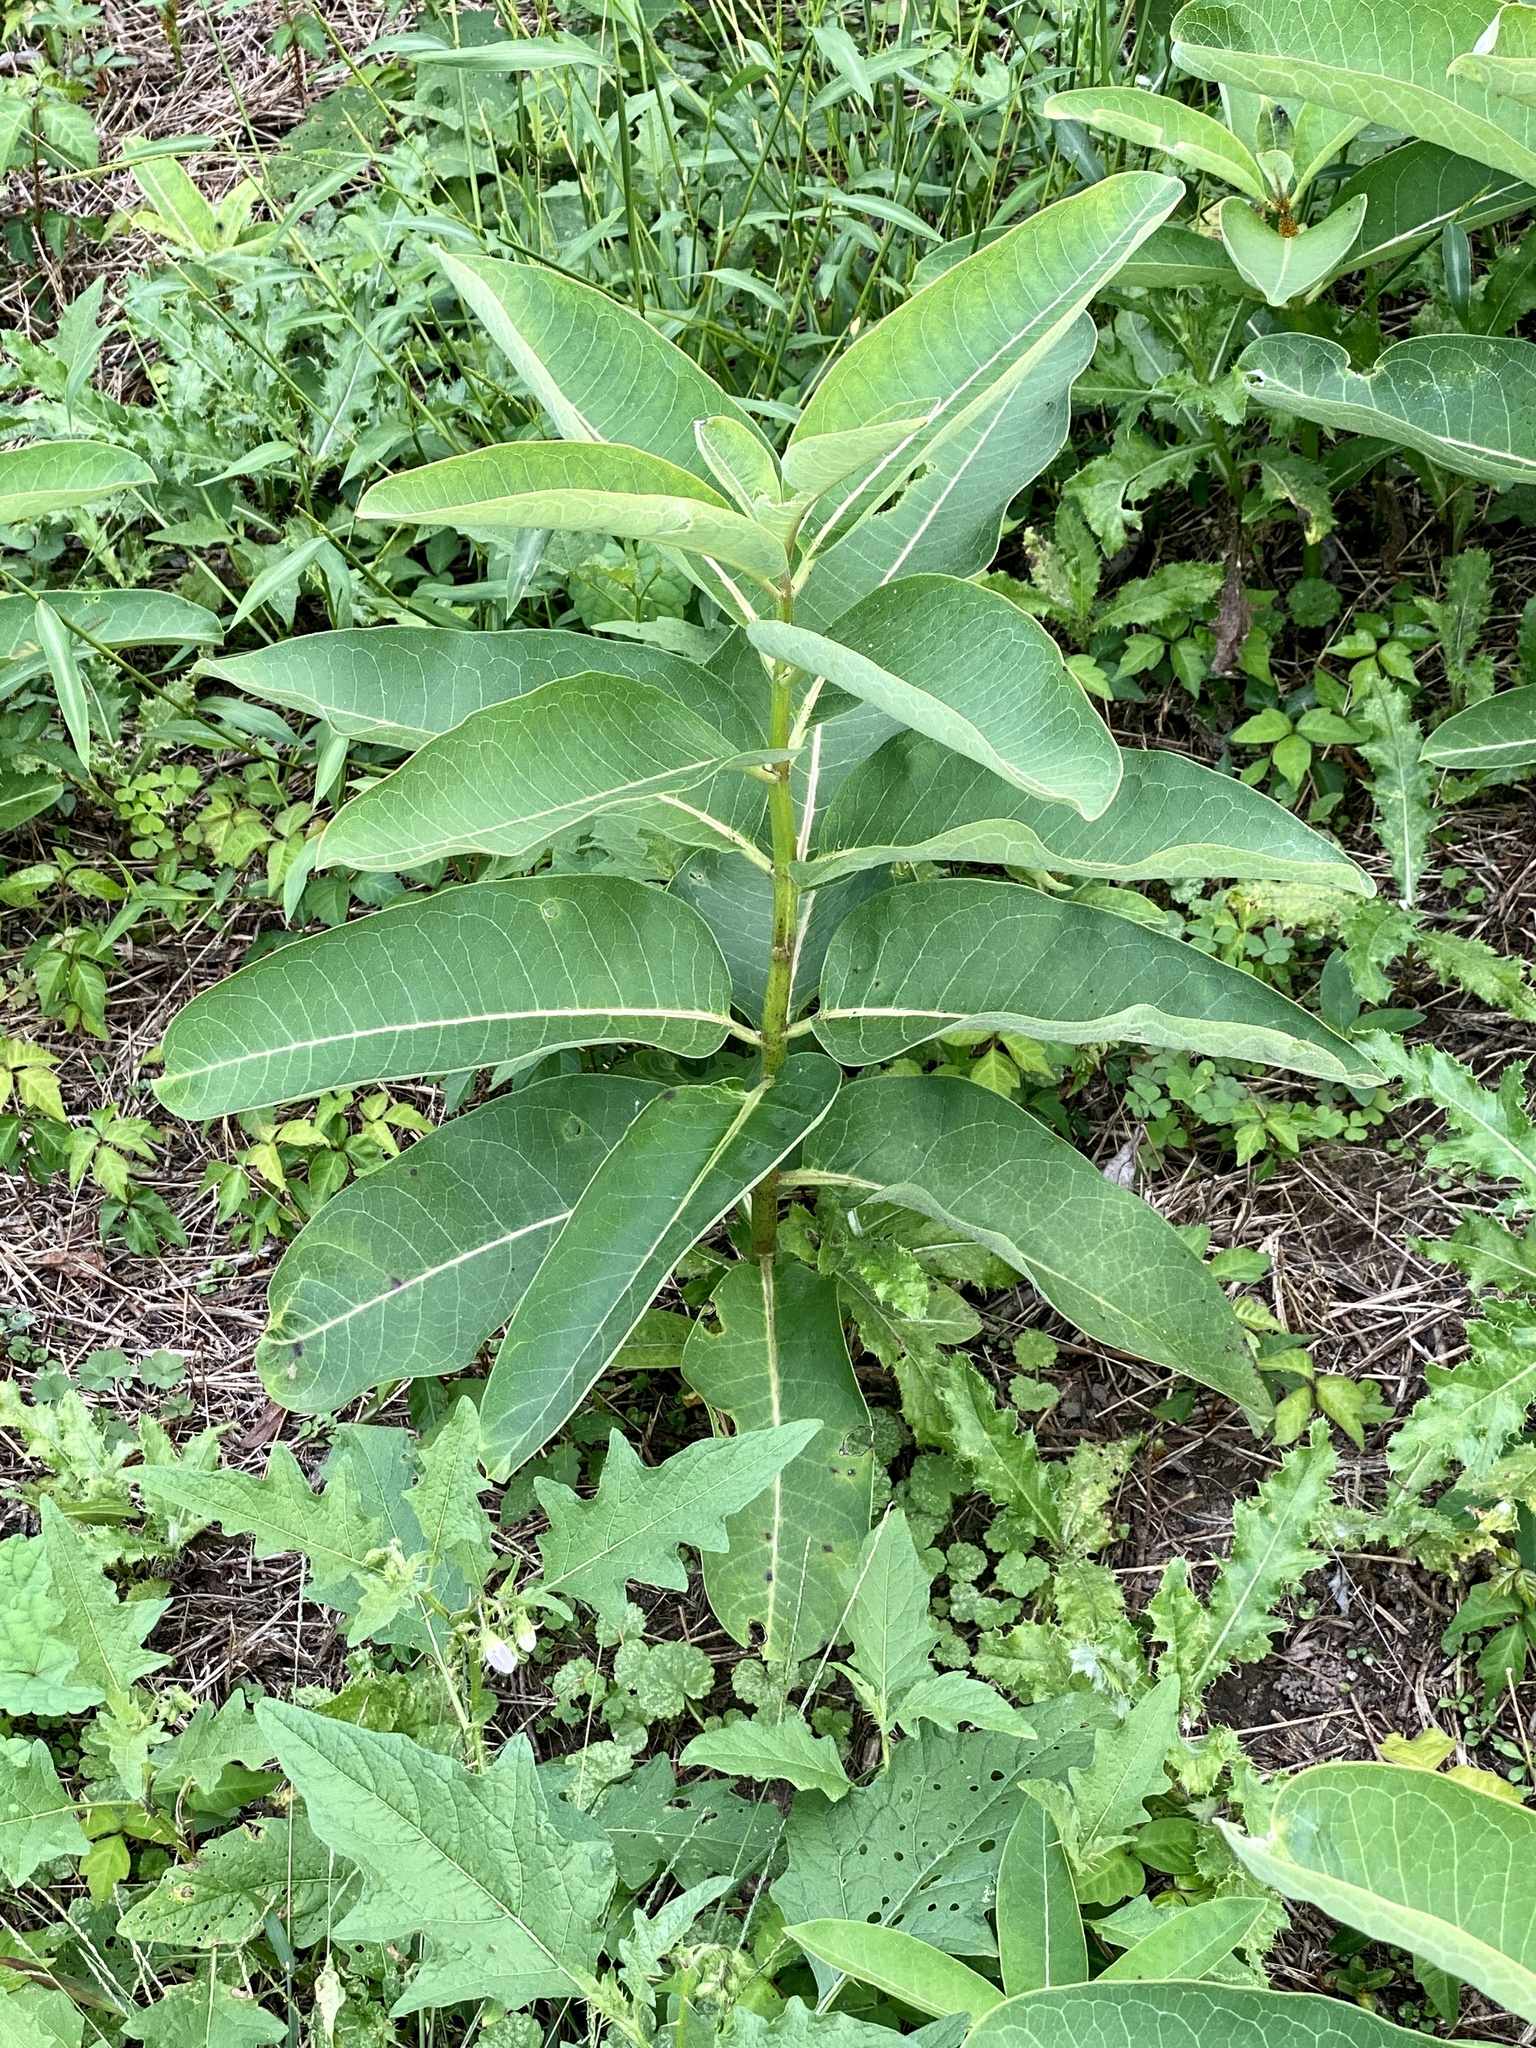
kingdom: Plantae
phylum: Tracheophyta
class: Magnoliopsida
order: Gentianales
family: Apocynaceae
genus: Asclepias
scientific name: Asclepias syriaca
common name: Common milkweed
